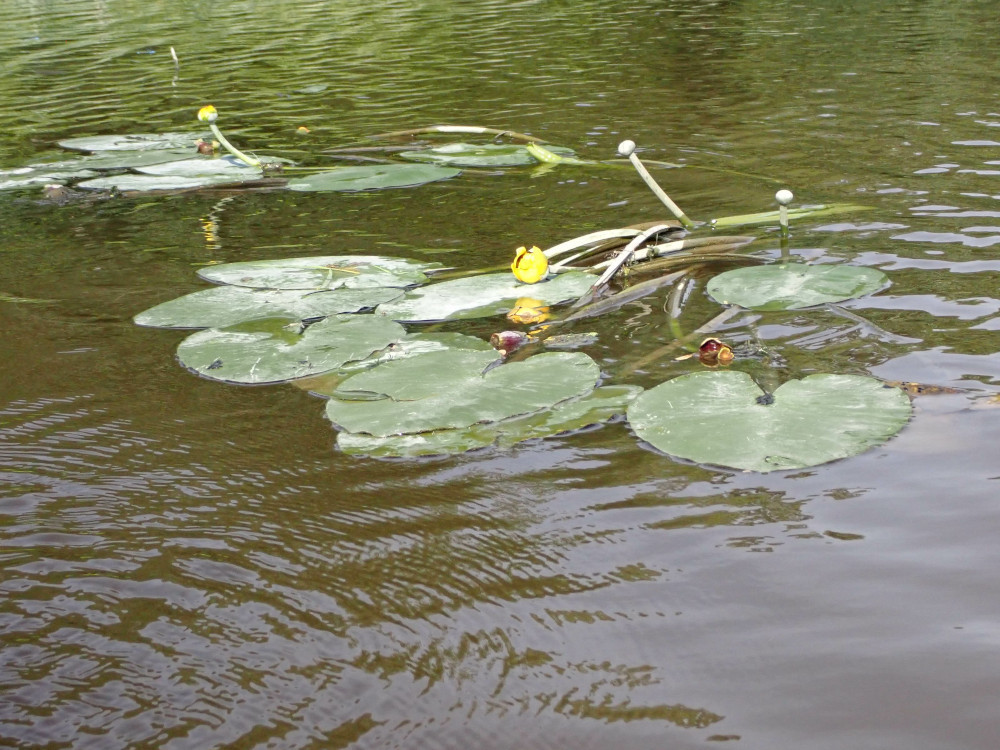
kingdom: Plantae
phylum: Tracheophyta
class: Magnoliopsida
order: Nymphaeales
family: Nymphaeaceae
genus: Nuphar
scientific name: Nuphar variegata
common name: Beaver-root
